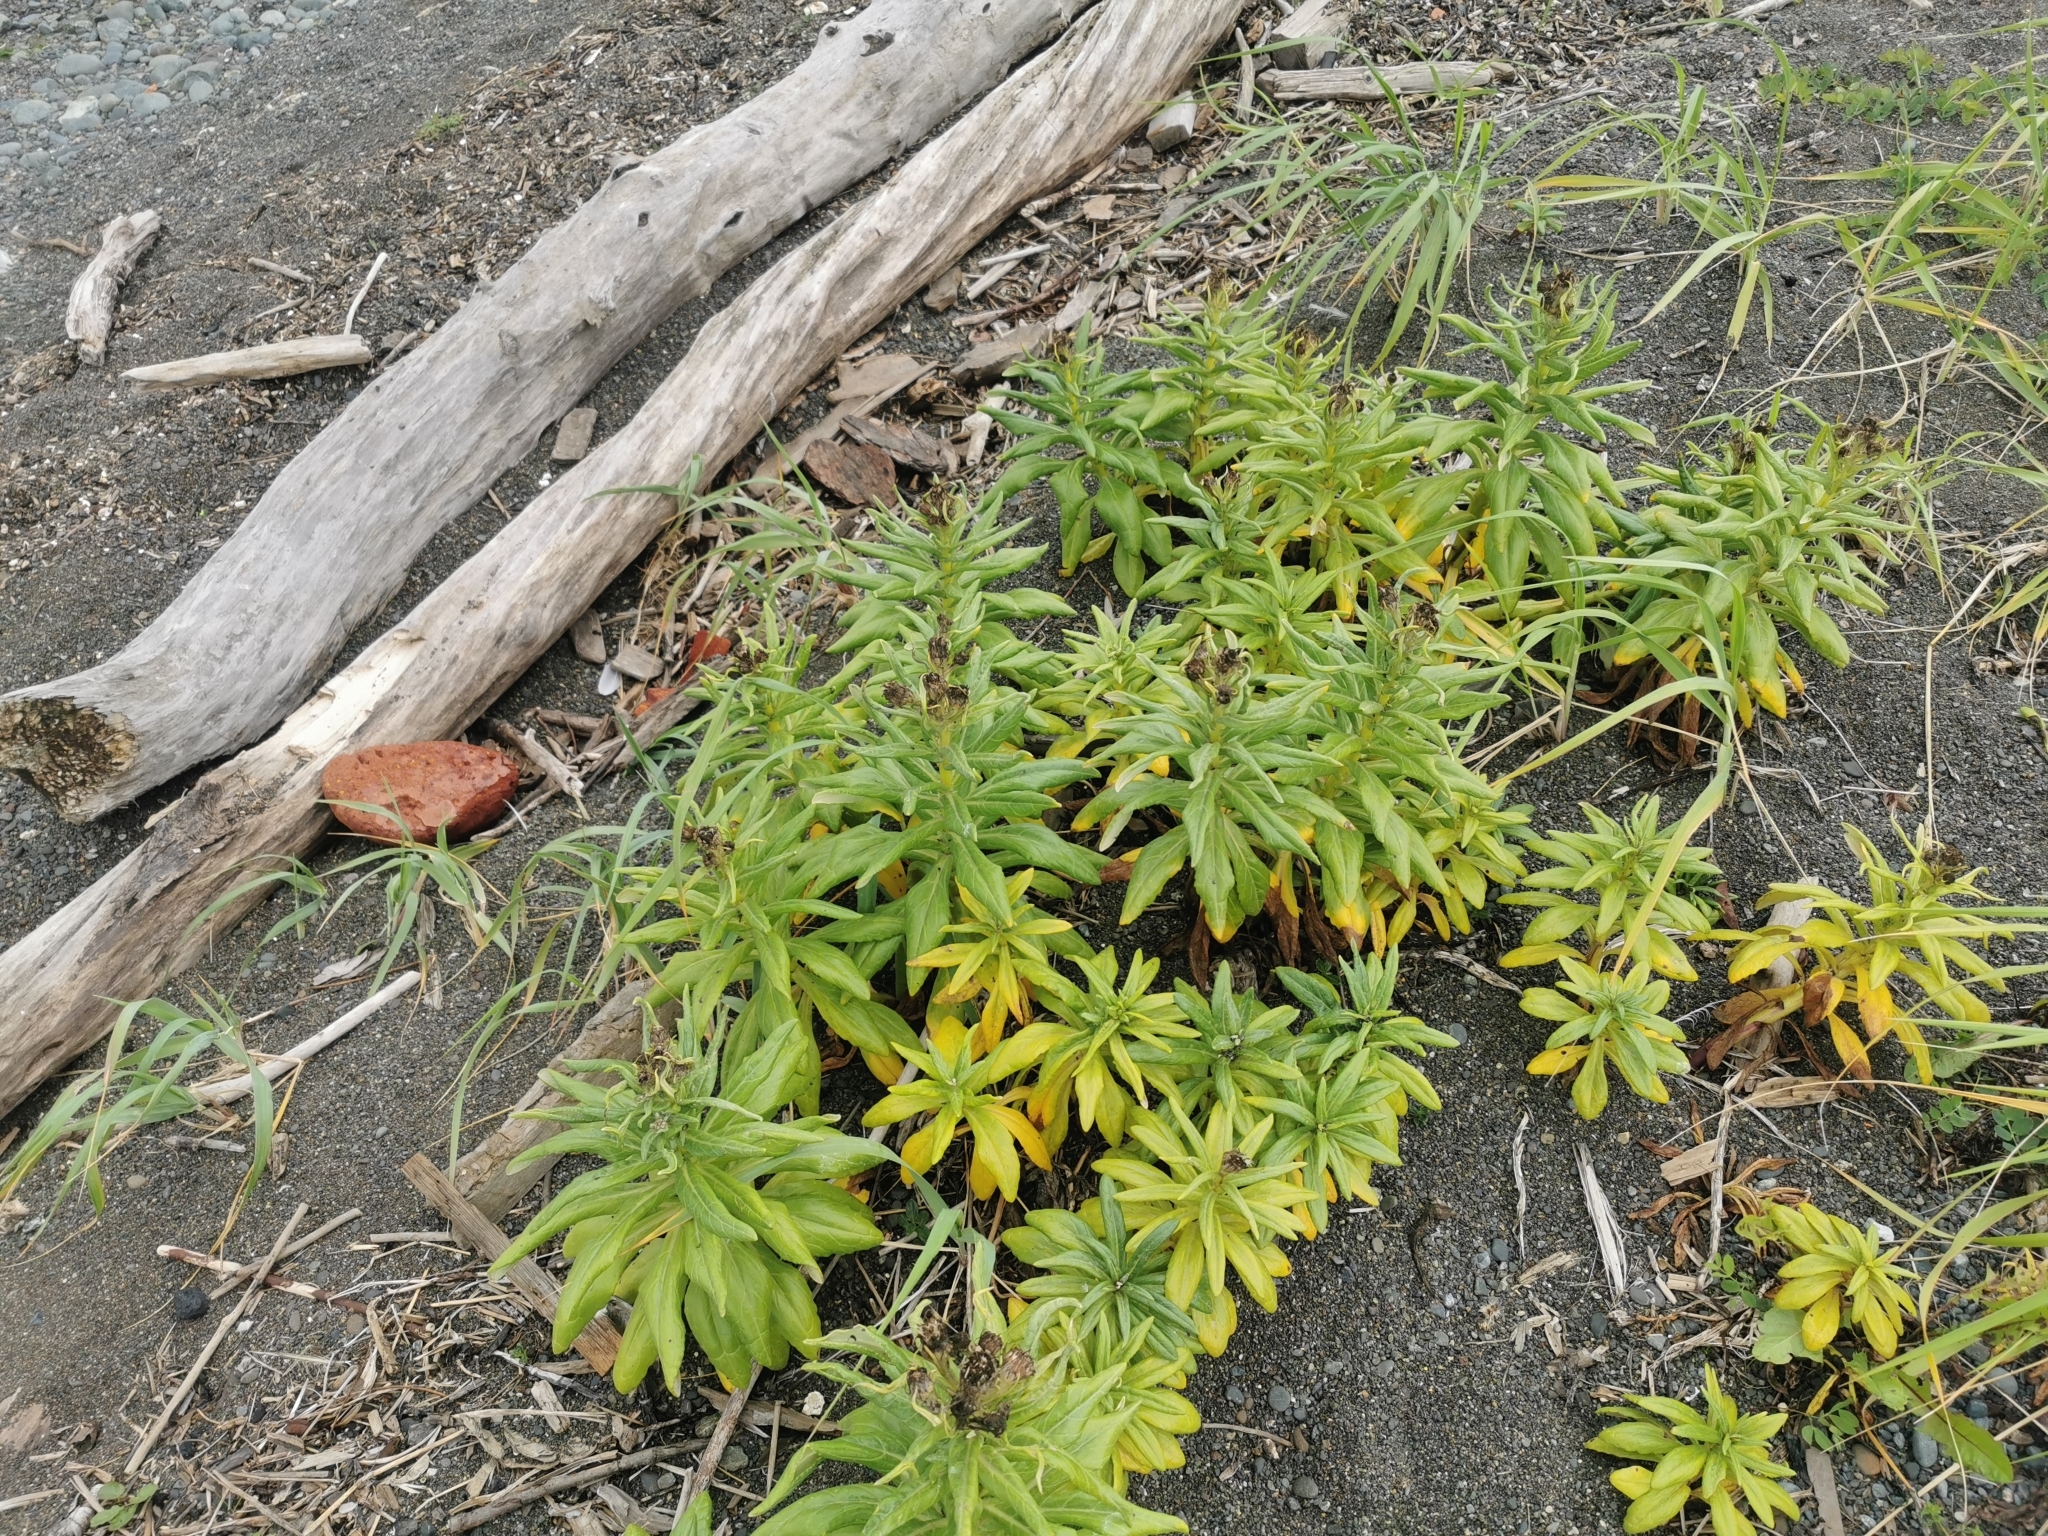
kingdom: Plantae
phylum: Tracheophyta
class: Magnoliopsida
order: Asterales
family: Asteraceae
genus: Jacobaea
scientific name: Jacobaea pseudoarnica
